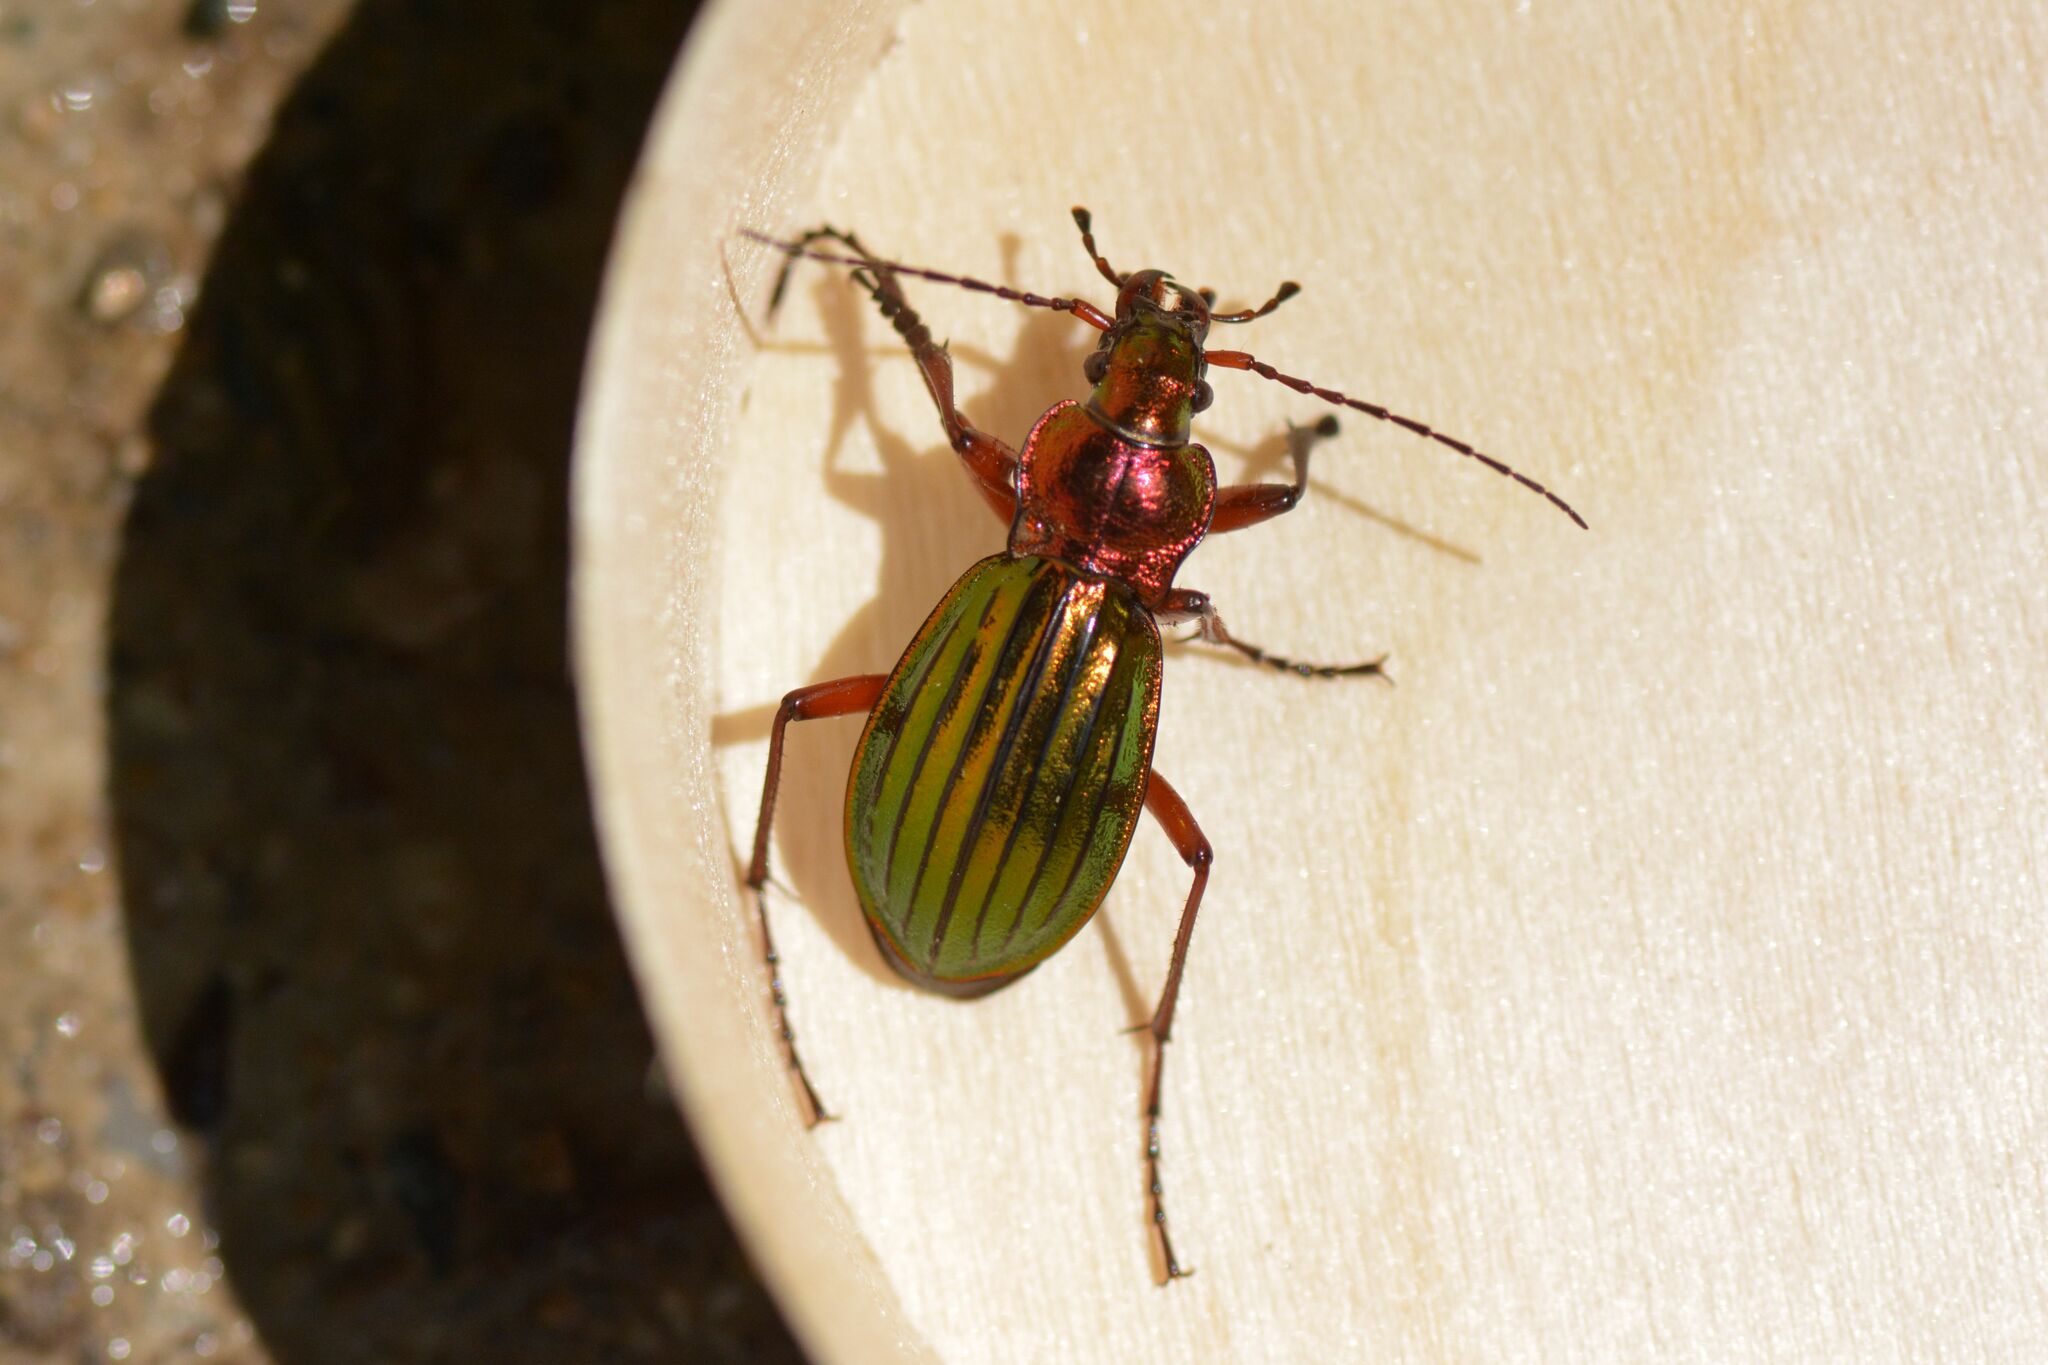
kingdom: Animalia
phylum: Arthropoda
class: Insecta
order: Coleoptera
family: Carabidae
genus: Carabus
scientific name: Carabus auronitens
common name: Carabus auronitens
